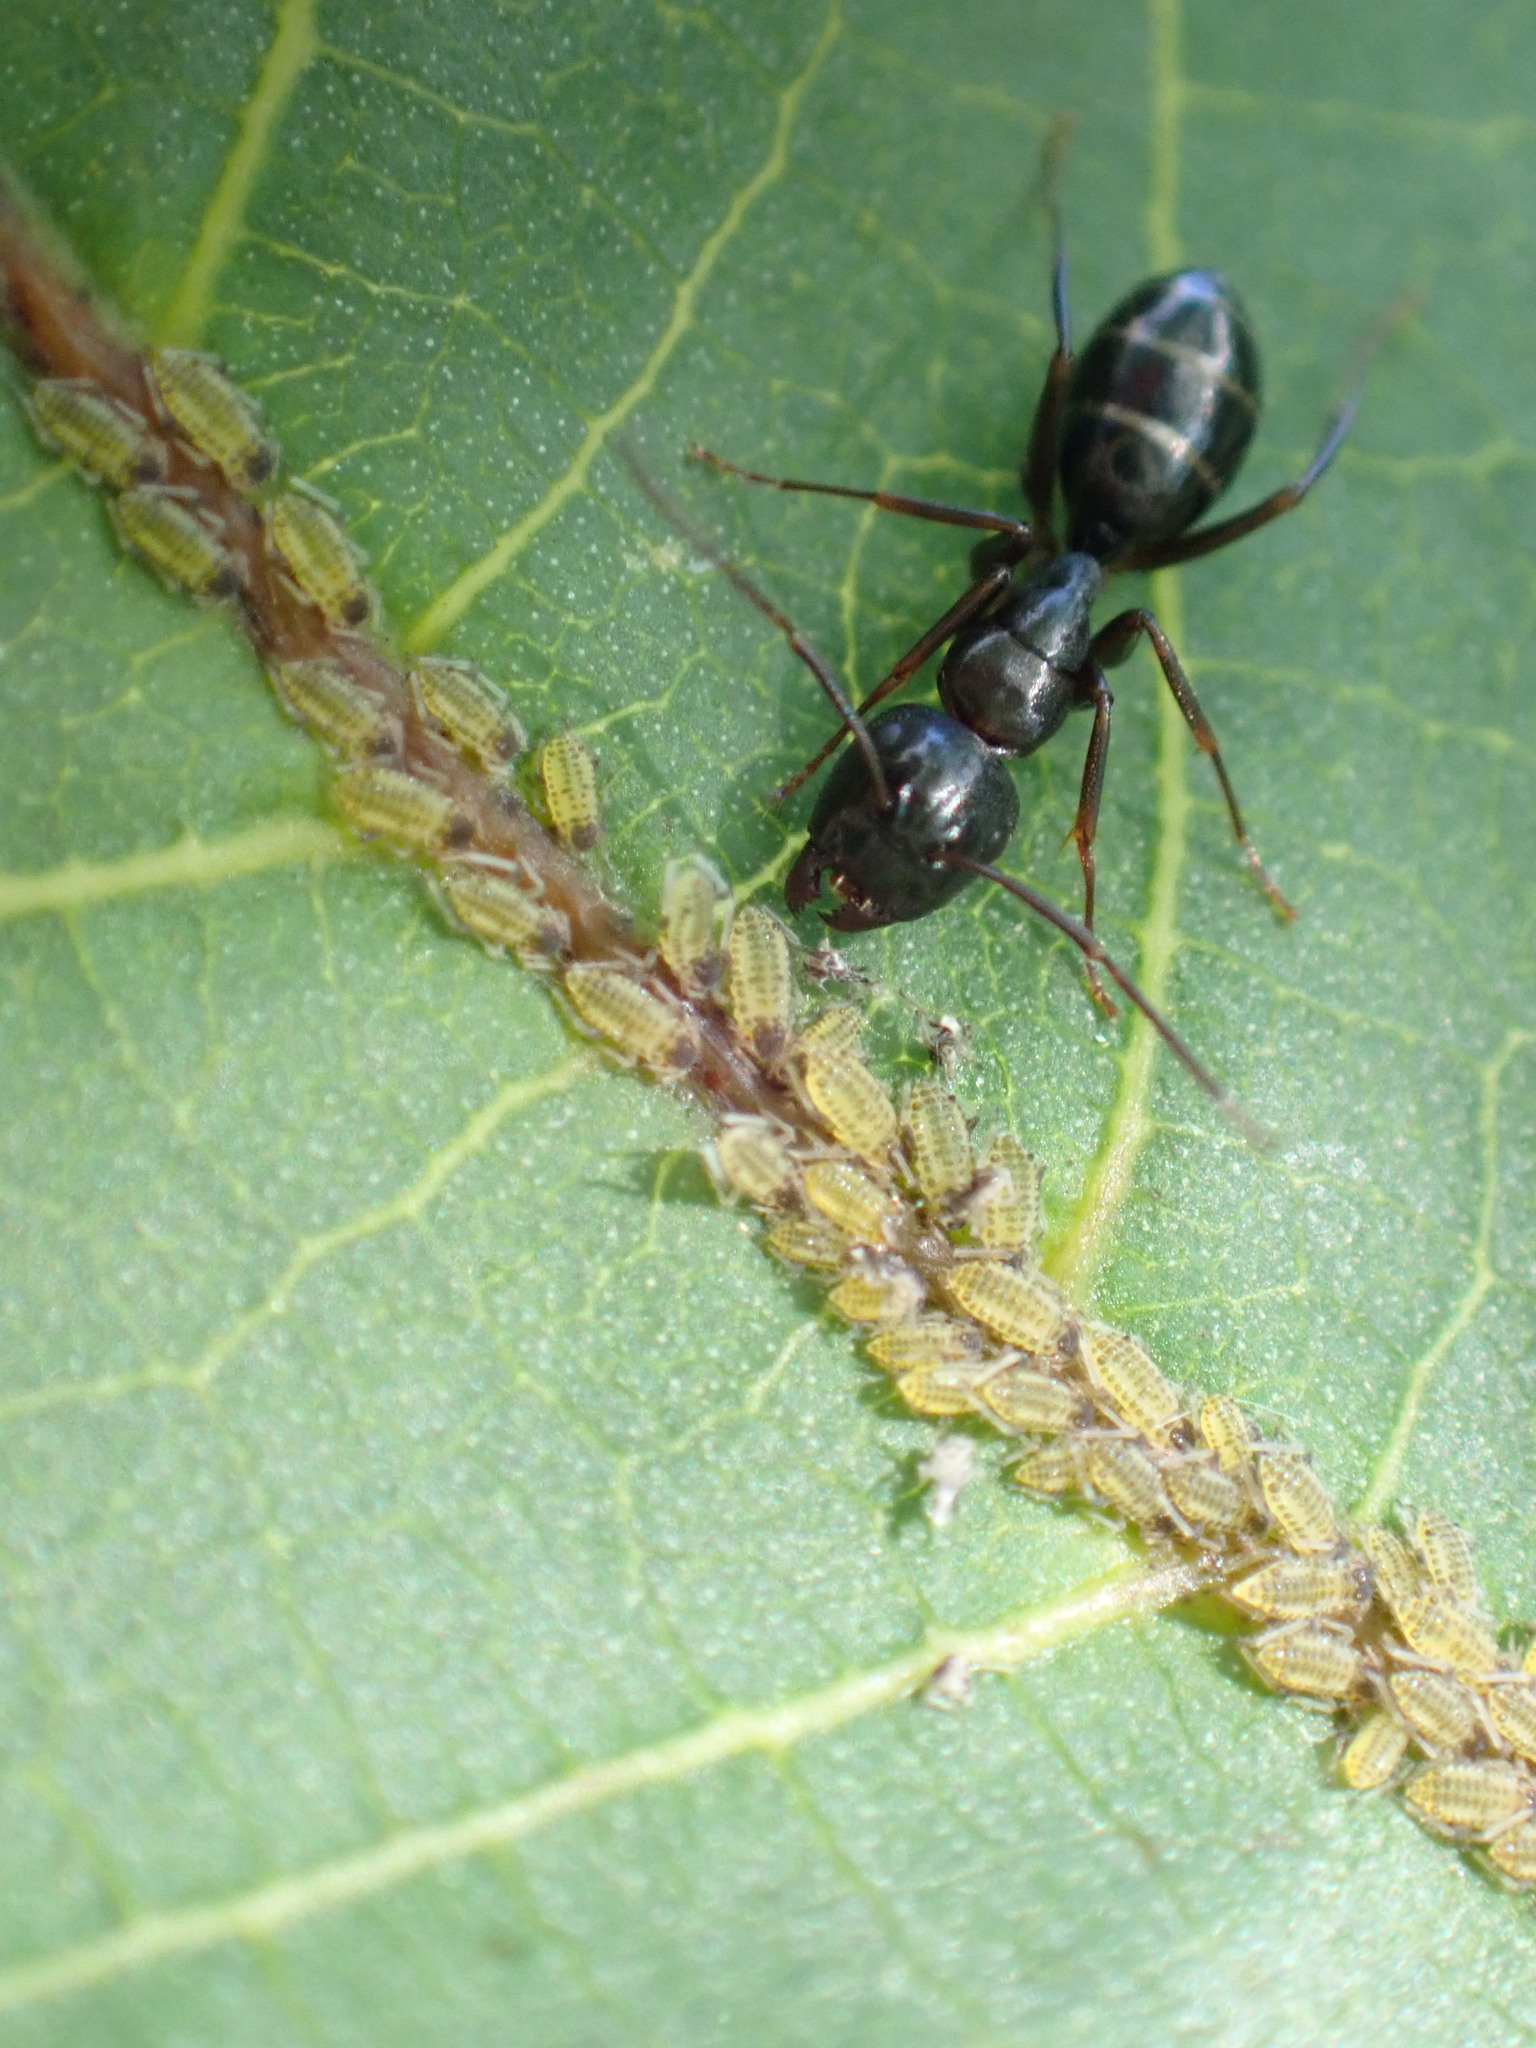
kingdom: Animalia
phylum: Arthropoda
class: Insecta
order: Hymenoptera
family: Formicidae
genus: Camponotus
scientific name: Camponotus fallax
